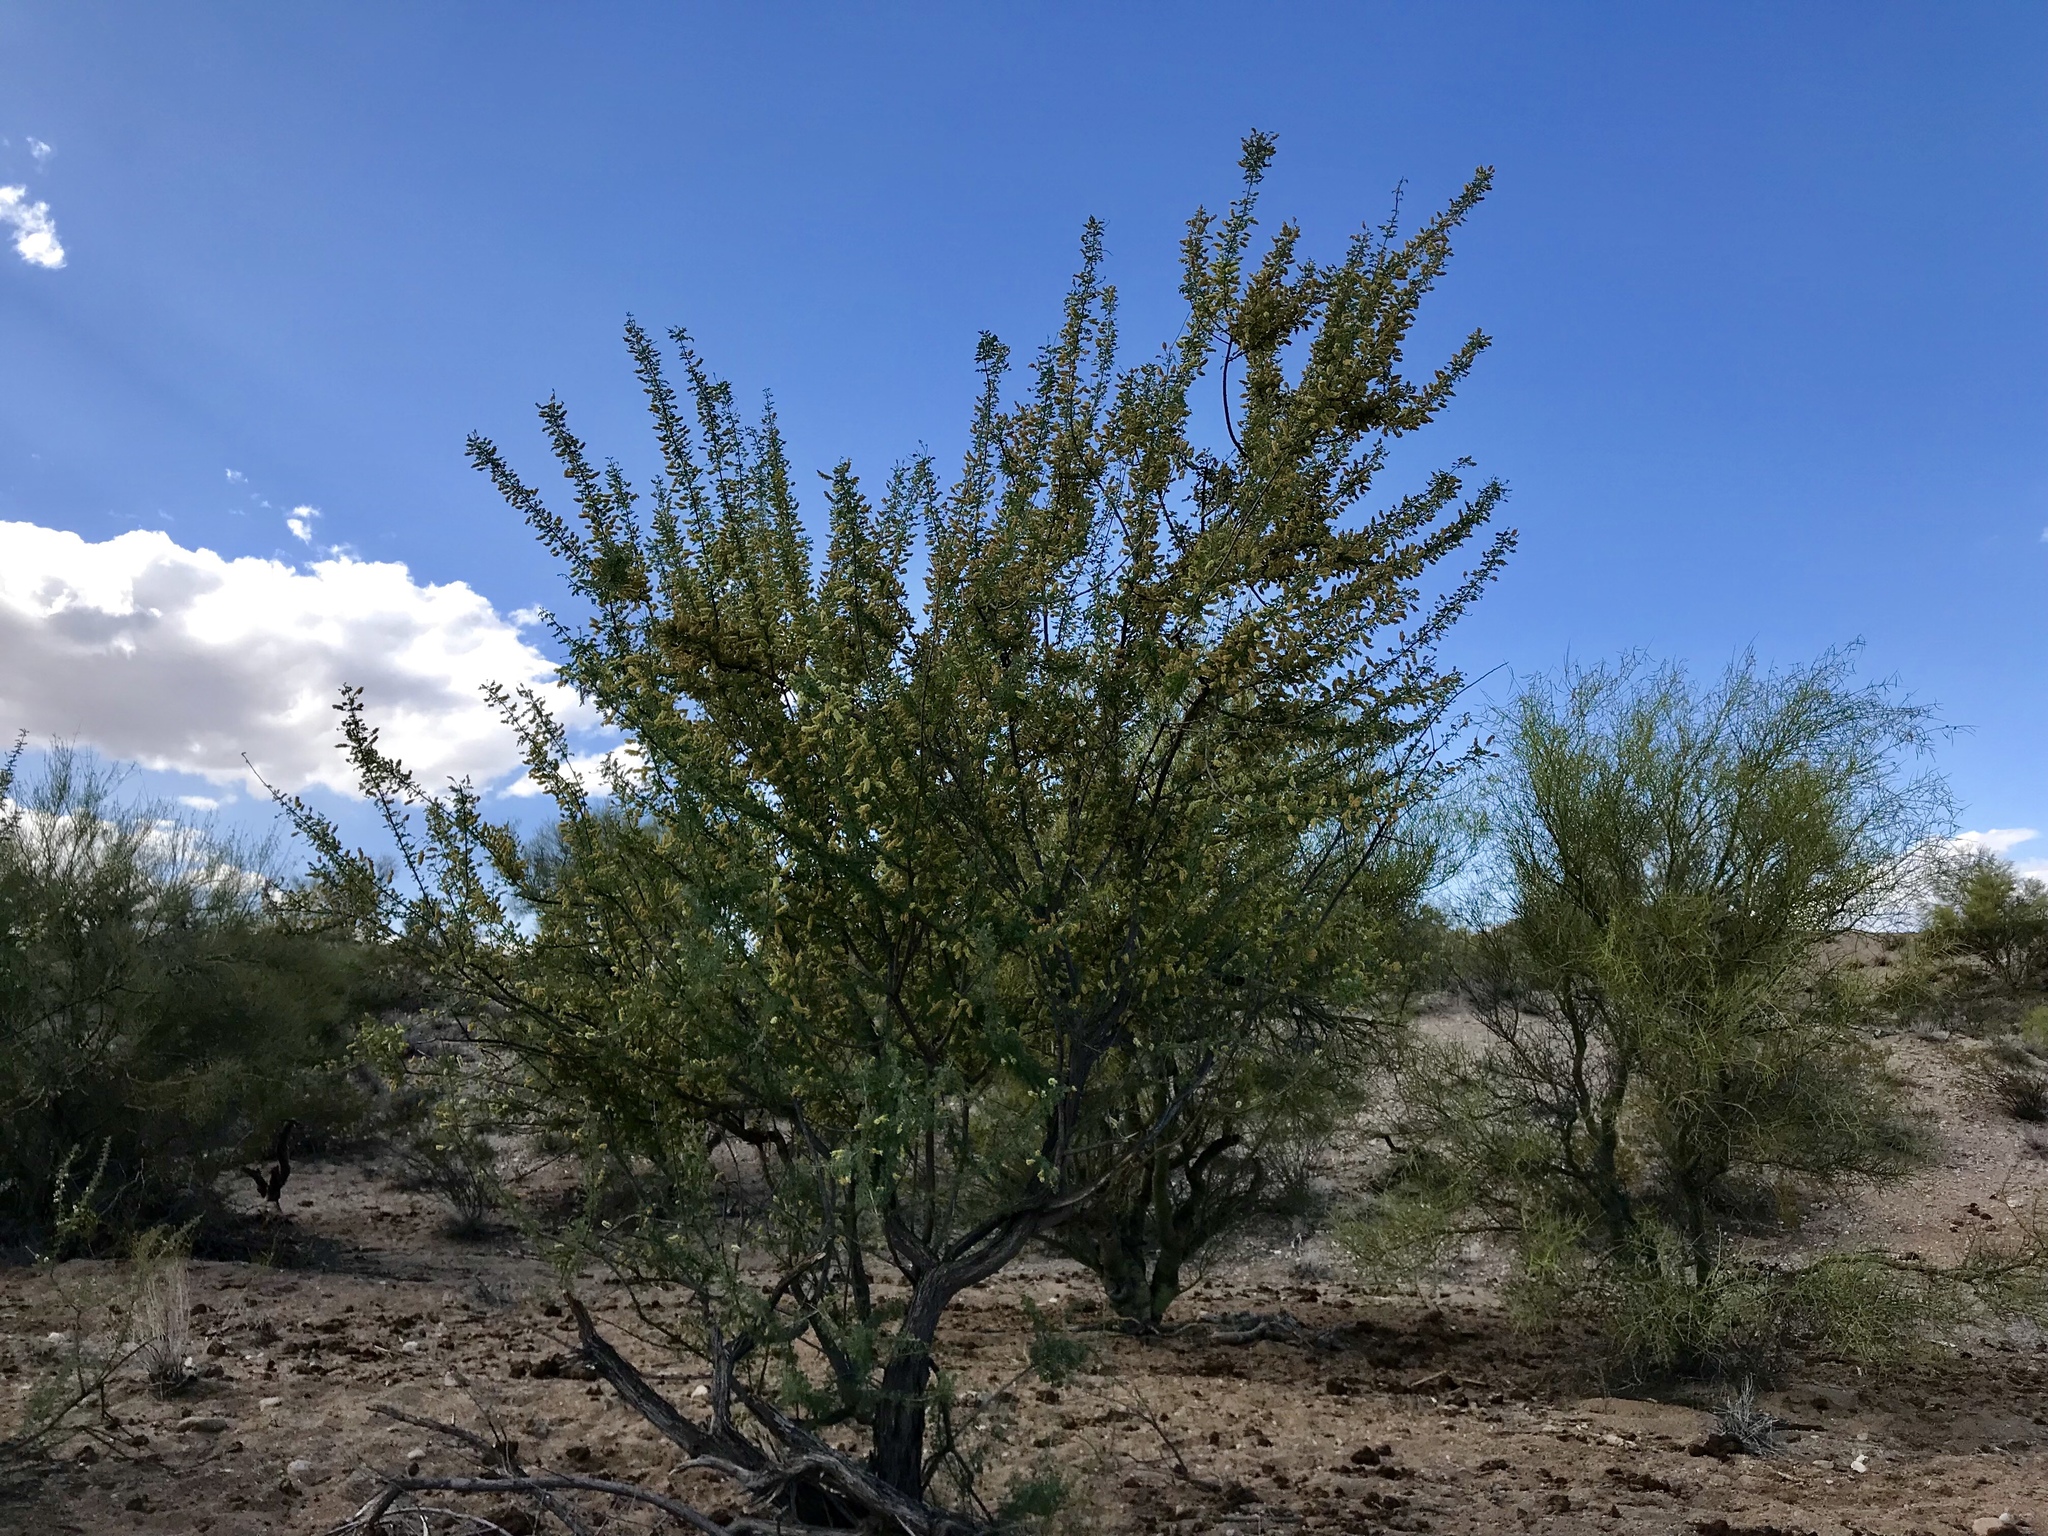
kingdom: Plantae
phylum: Tracheophyta
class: Magnoliopsida
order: Fabales
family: Fabaceae
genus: Senegalia
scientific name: Senegalia greggii
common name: Texas-mimosa
